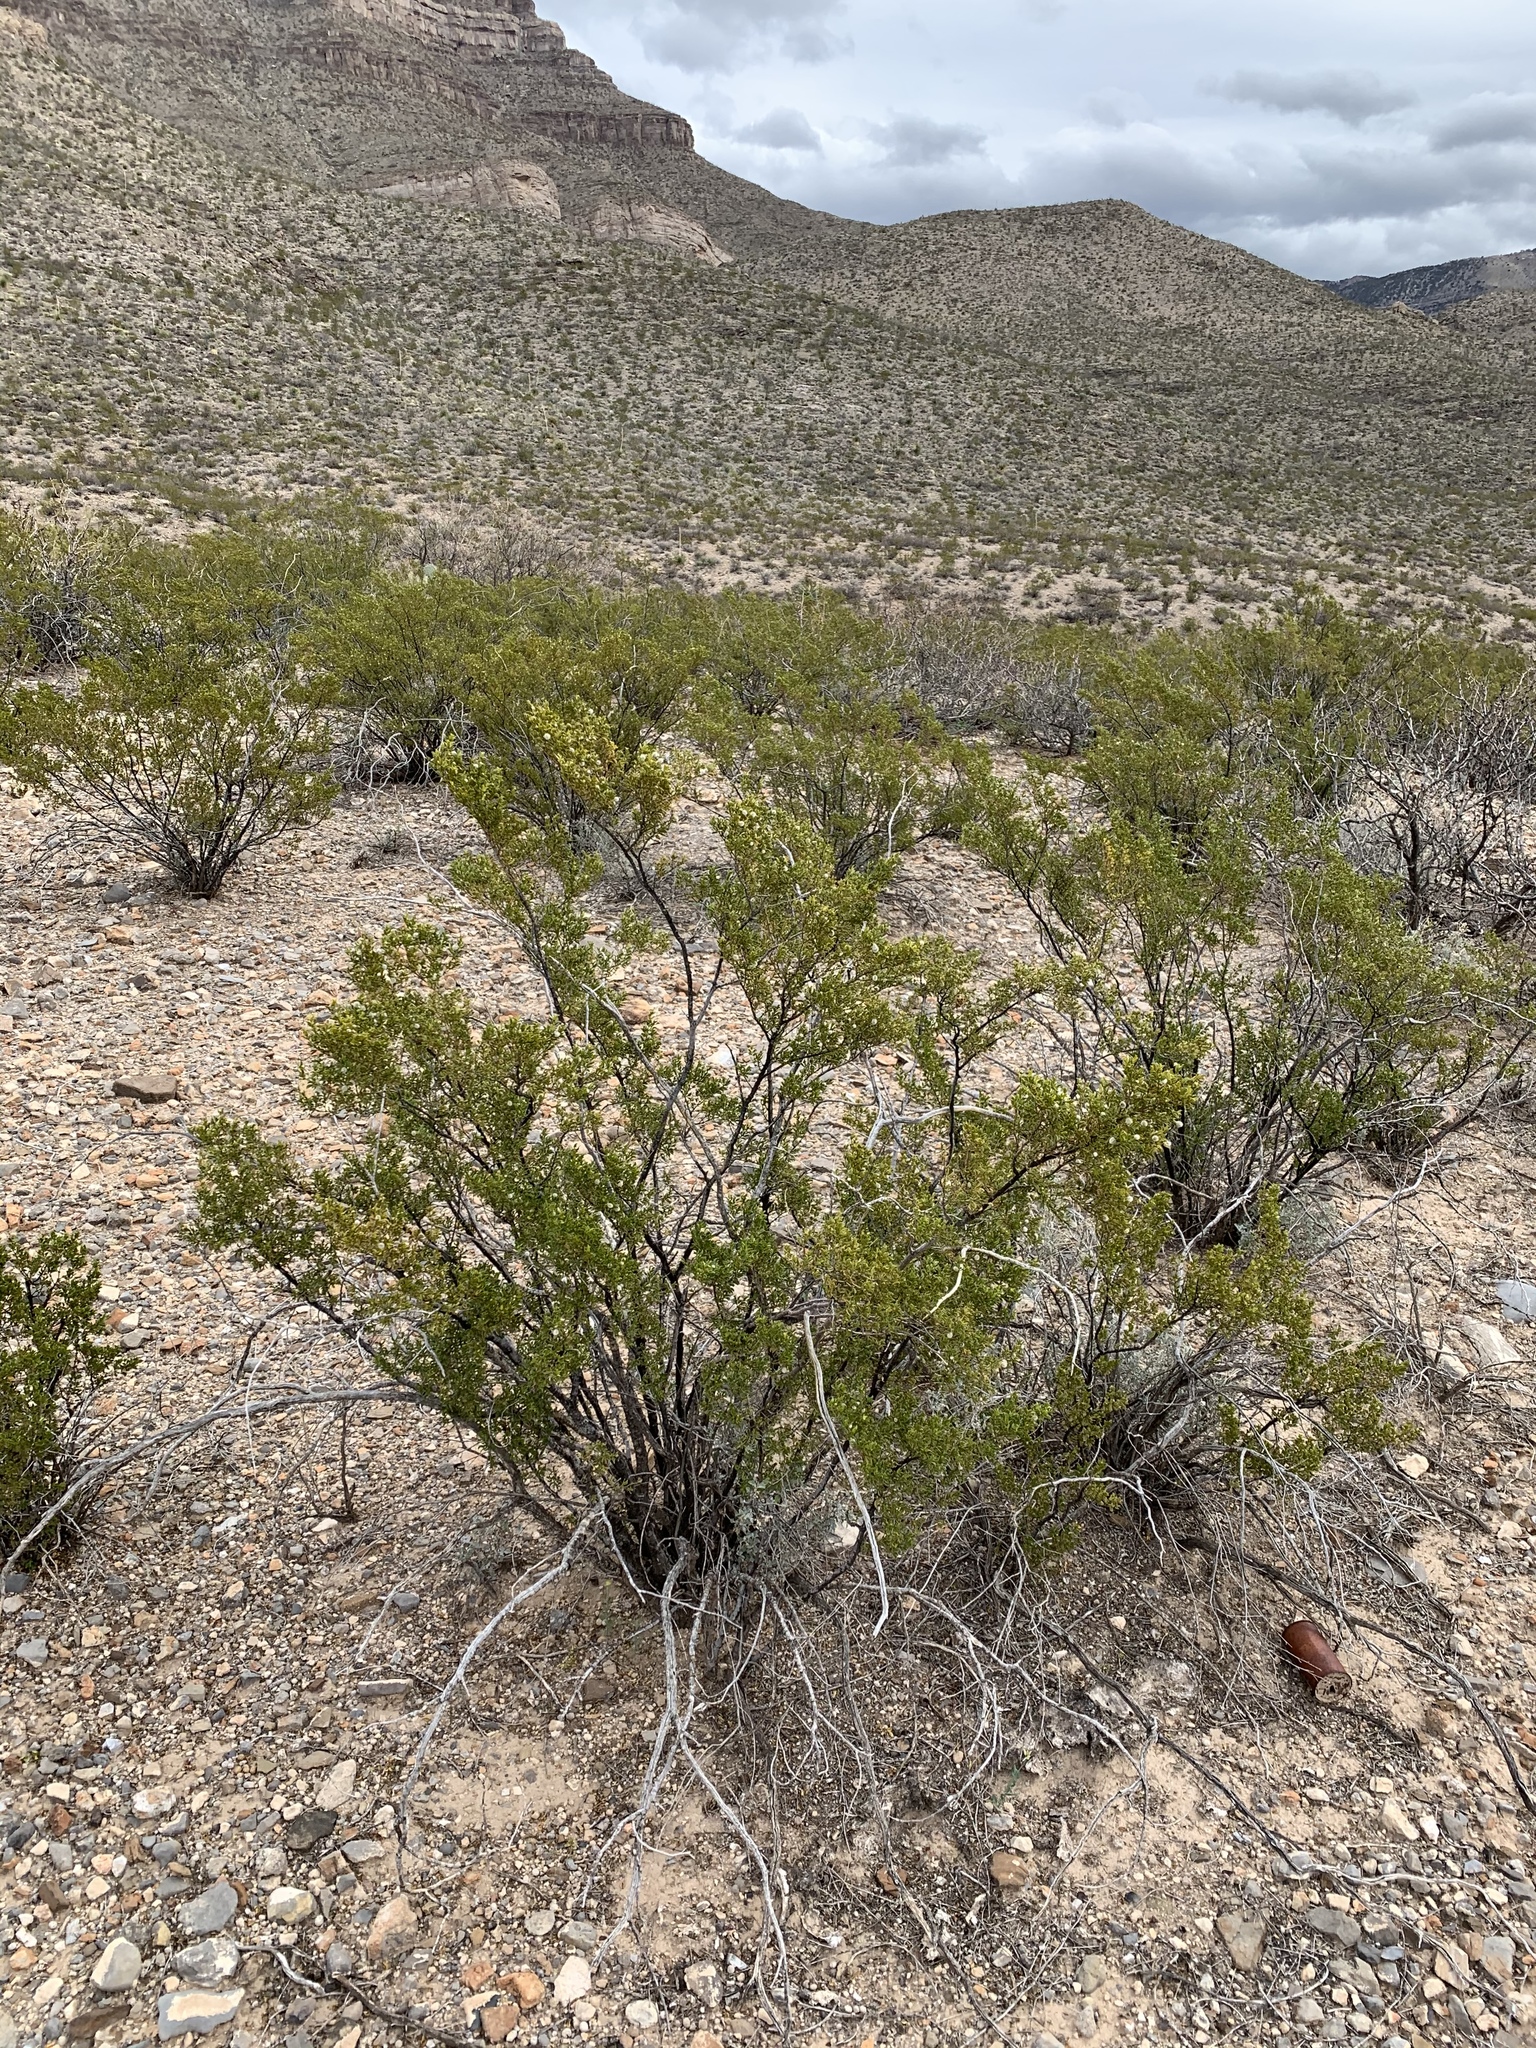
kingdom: Plantae
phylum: Tracheophyta
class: Magnoliopsida
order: Zygophyllales
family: Zygophyllaceae
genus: Larrea
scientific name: Larrea tridentata
